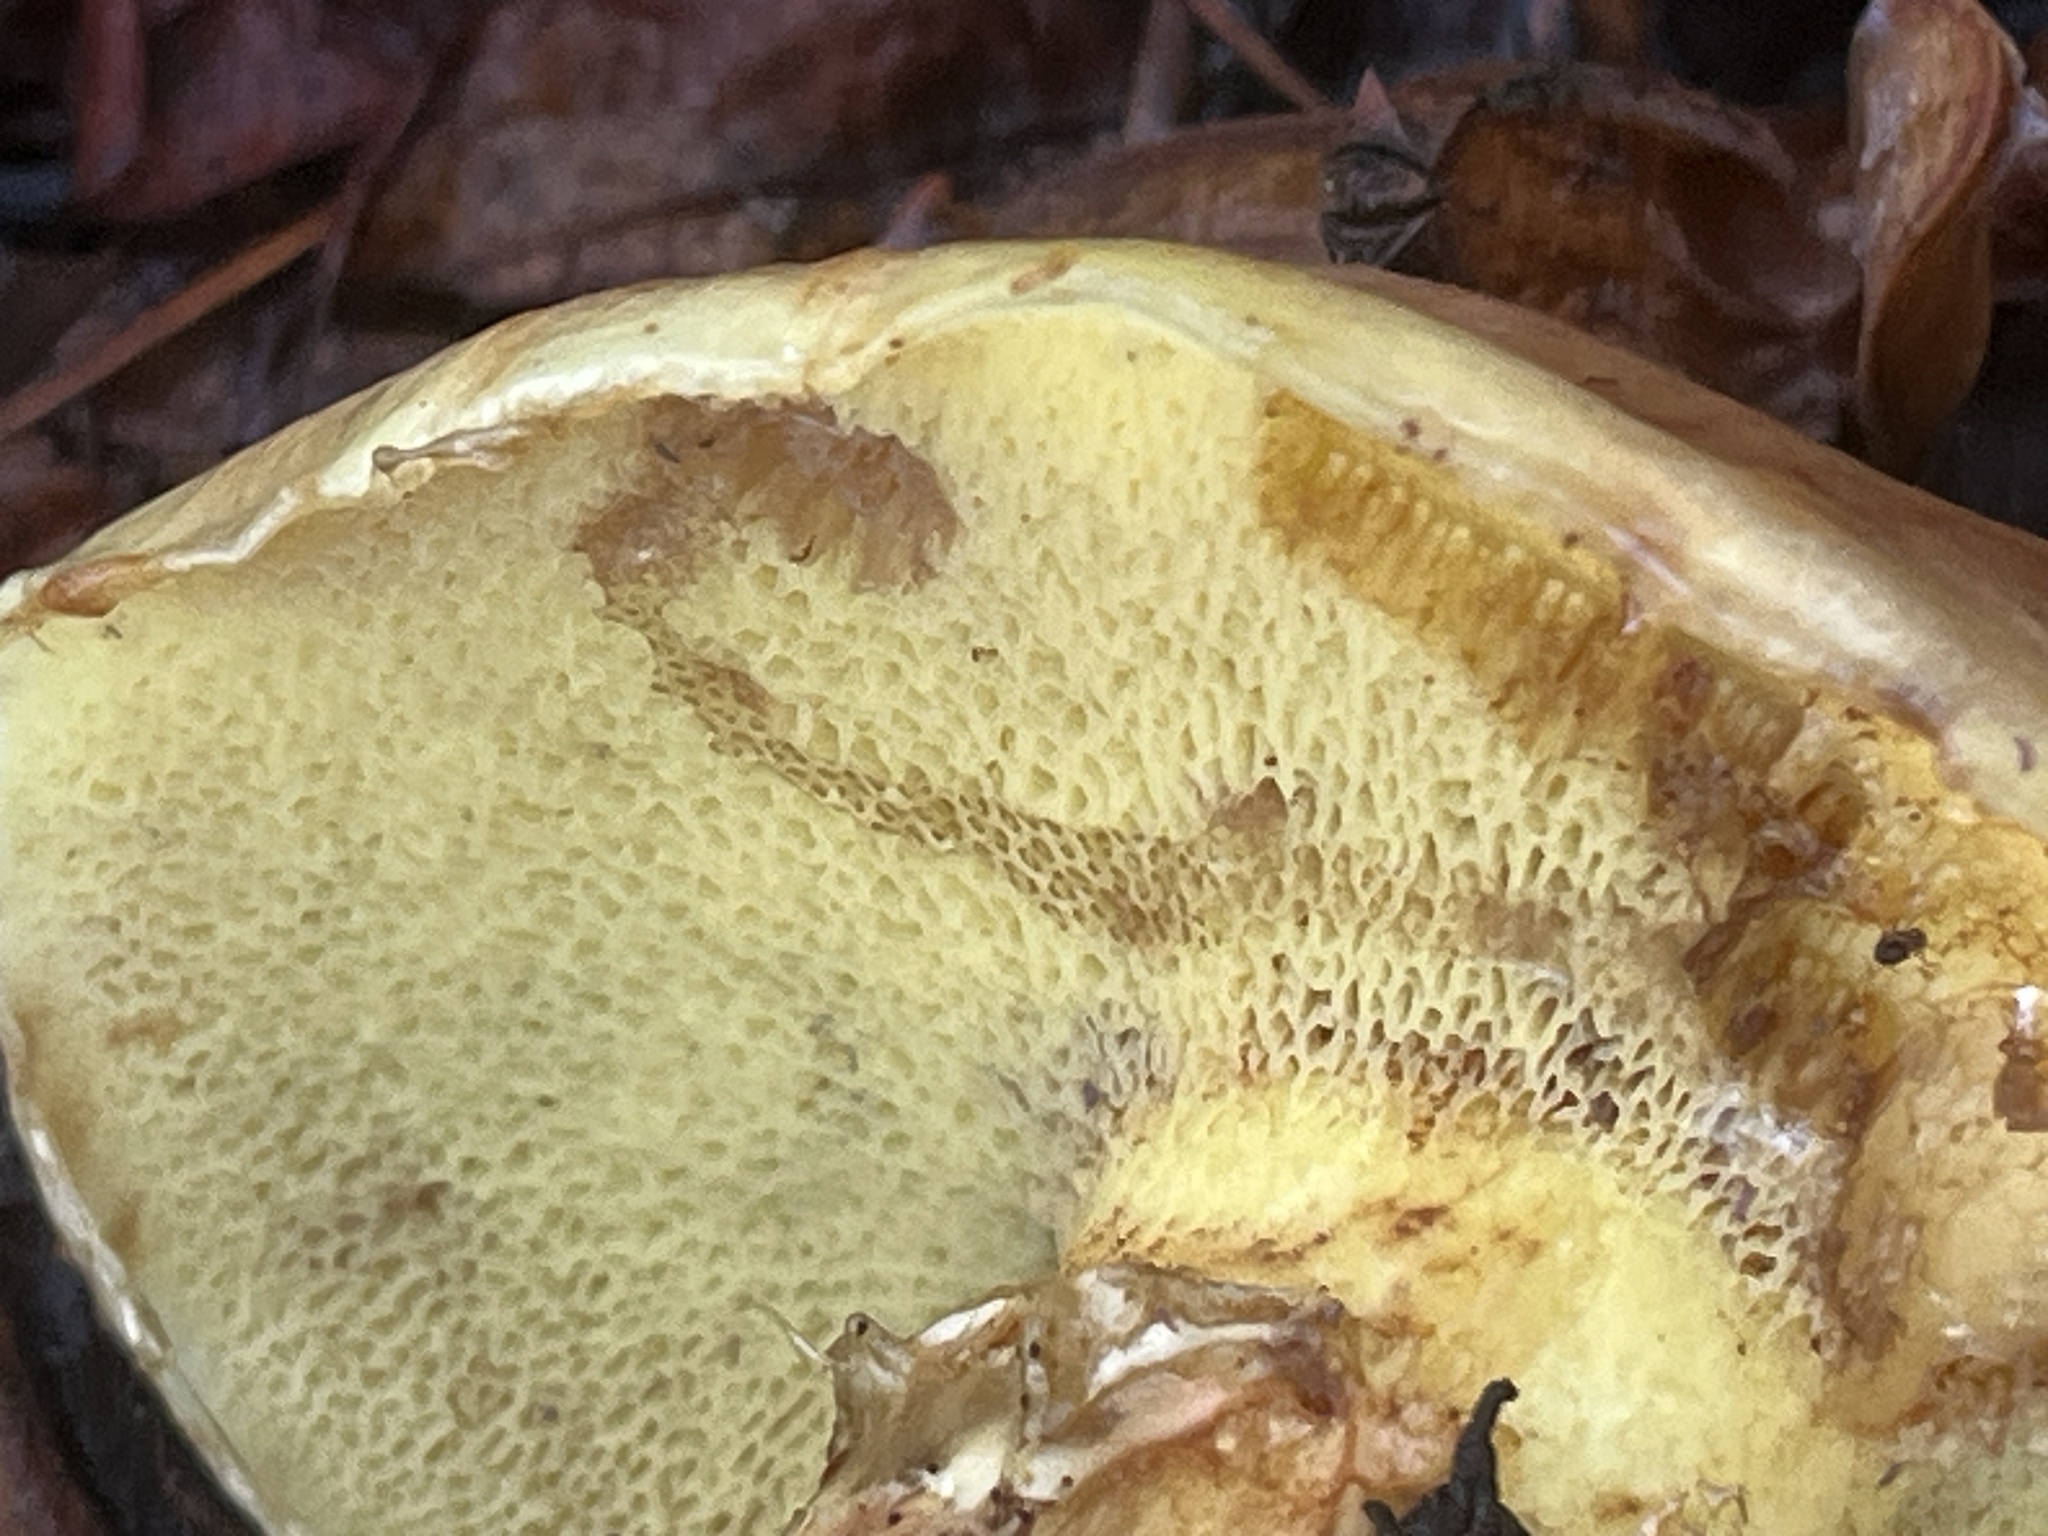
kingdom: Fungi
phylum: Basidiomycota
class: Agaricomycetes
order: Boletales
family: Suillaceae
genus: Suillus
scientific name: Suillus caerulescens
